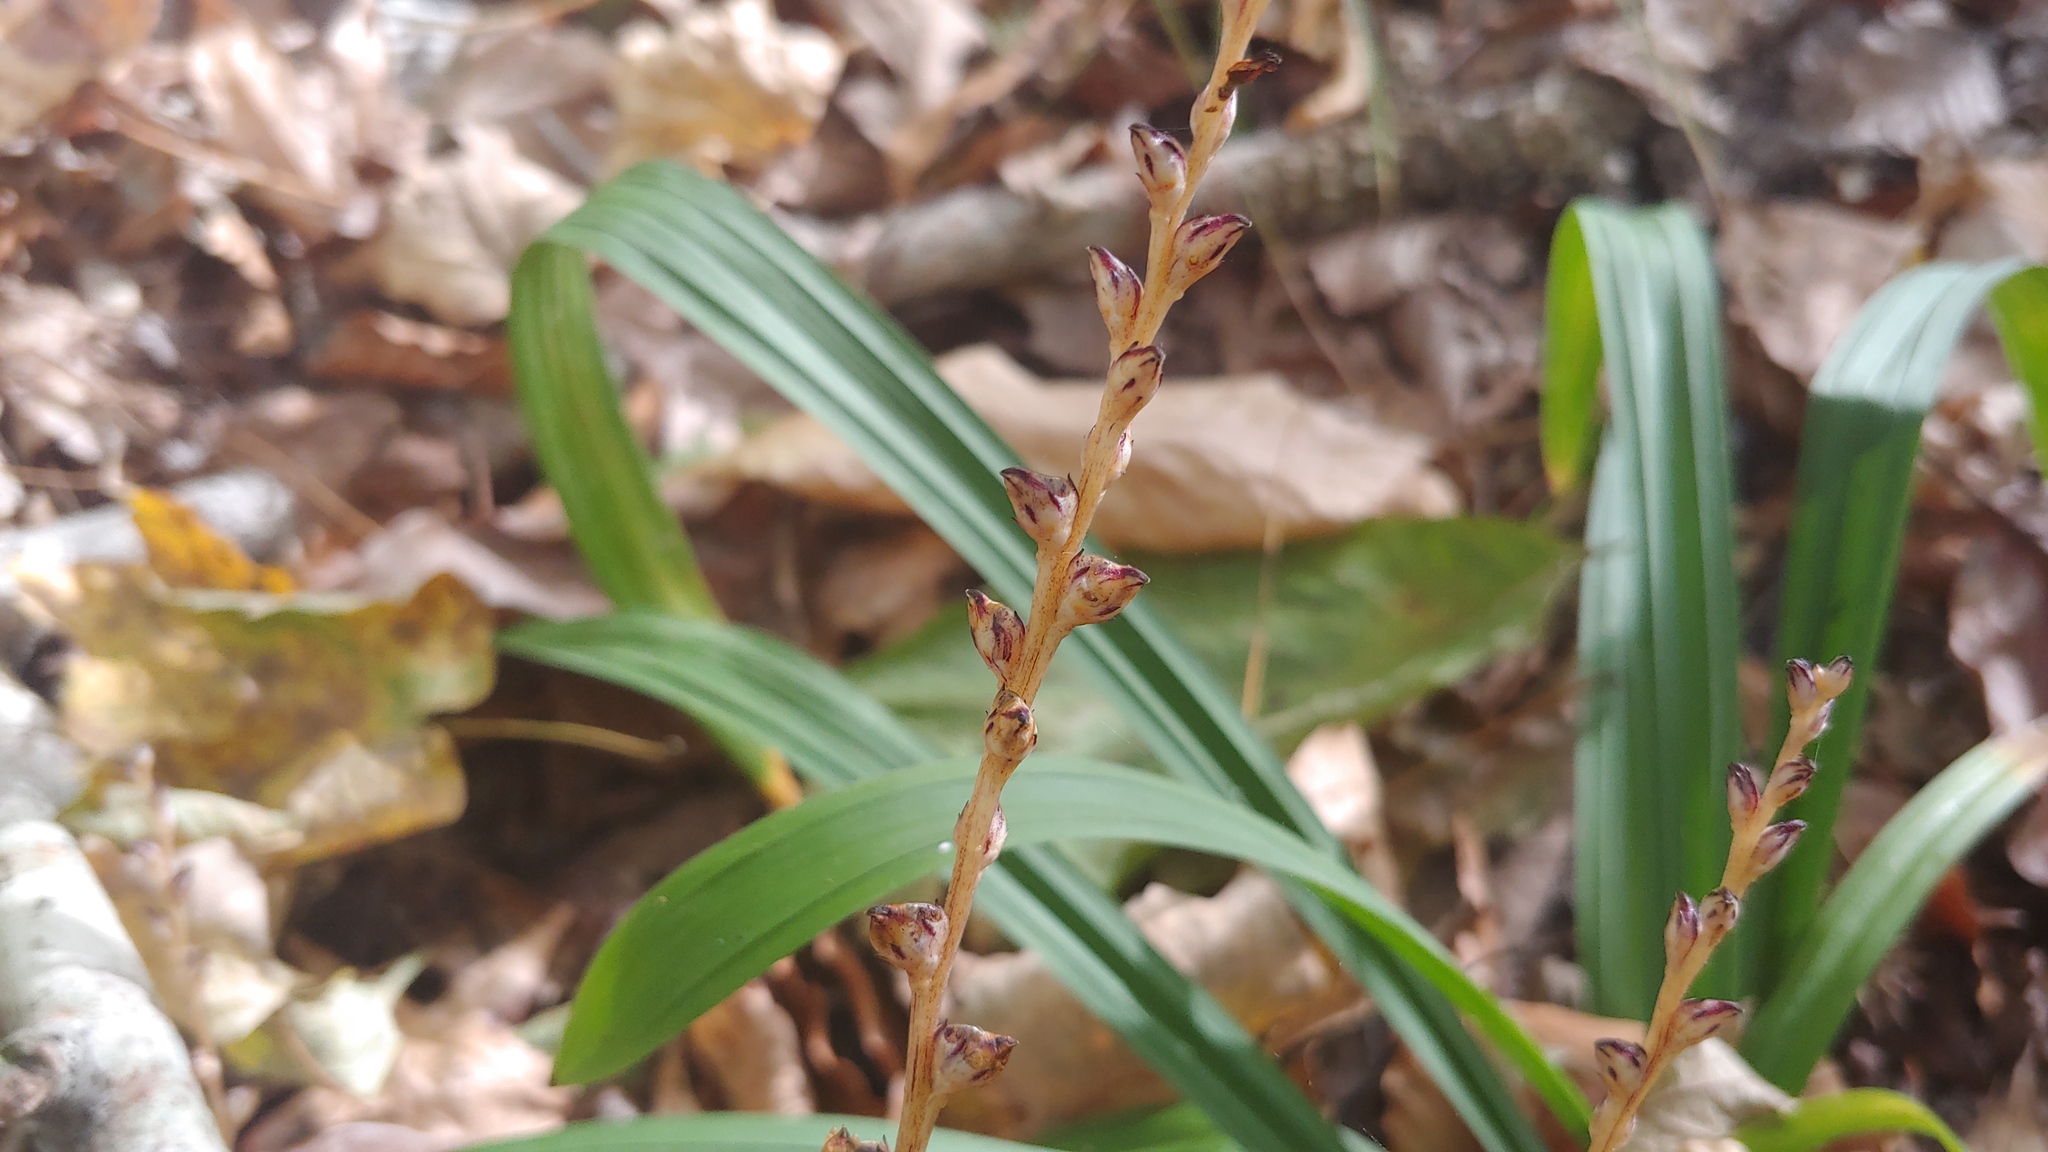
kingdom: Plantae
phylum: Tracheophyta
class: Magnoliopsida
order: Lamiales
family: Orobanchaceae
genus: Epifagus
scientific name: Epifagus virginiana
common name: Beechdrops
